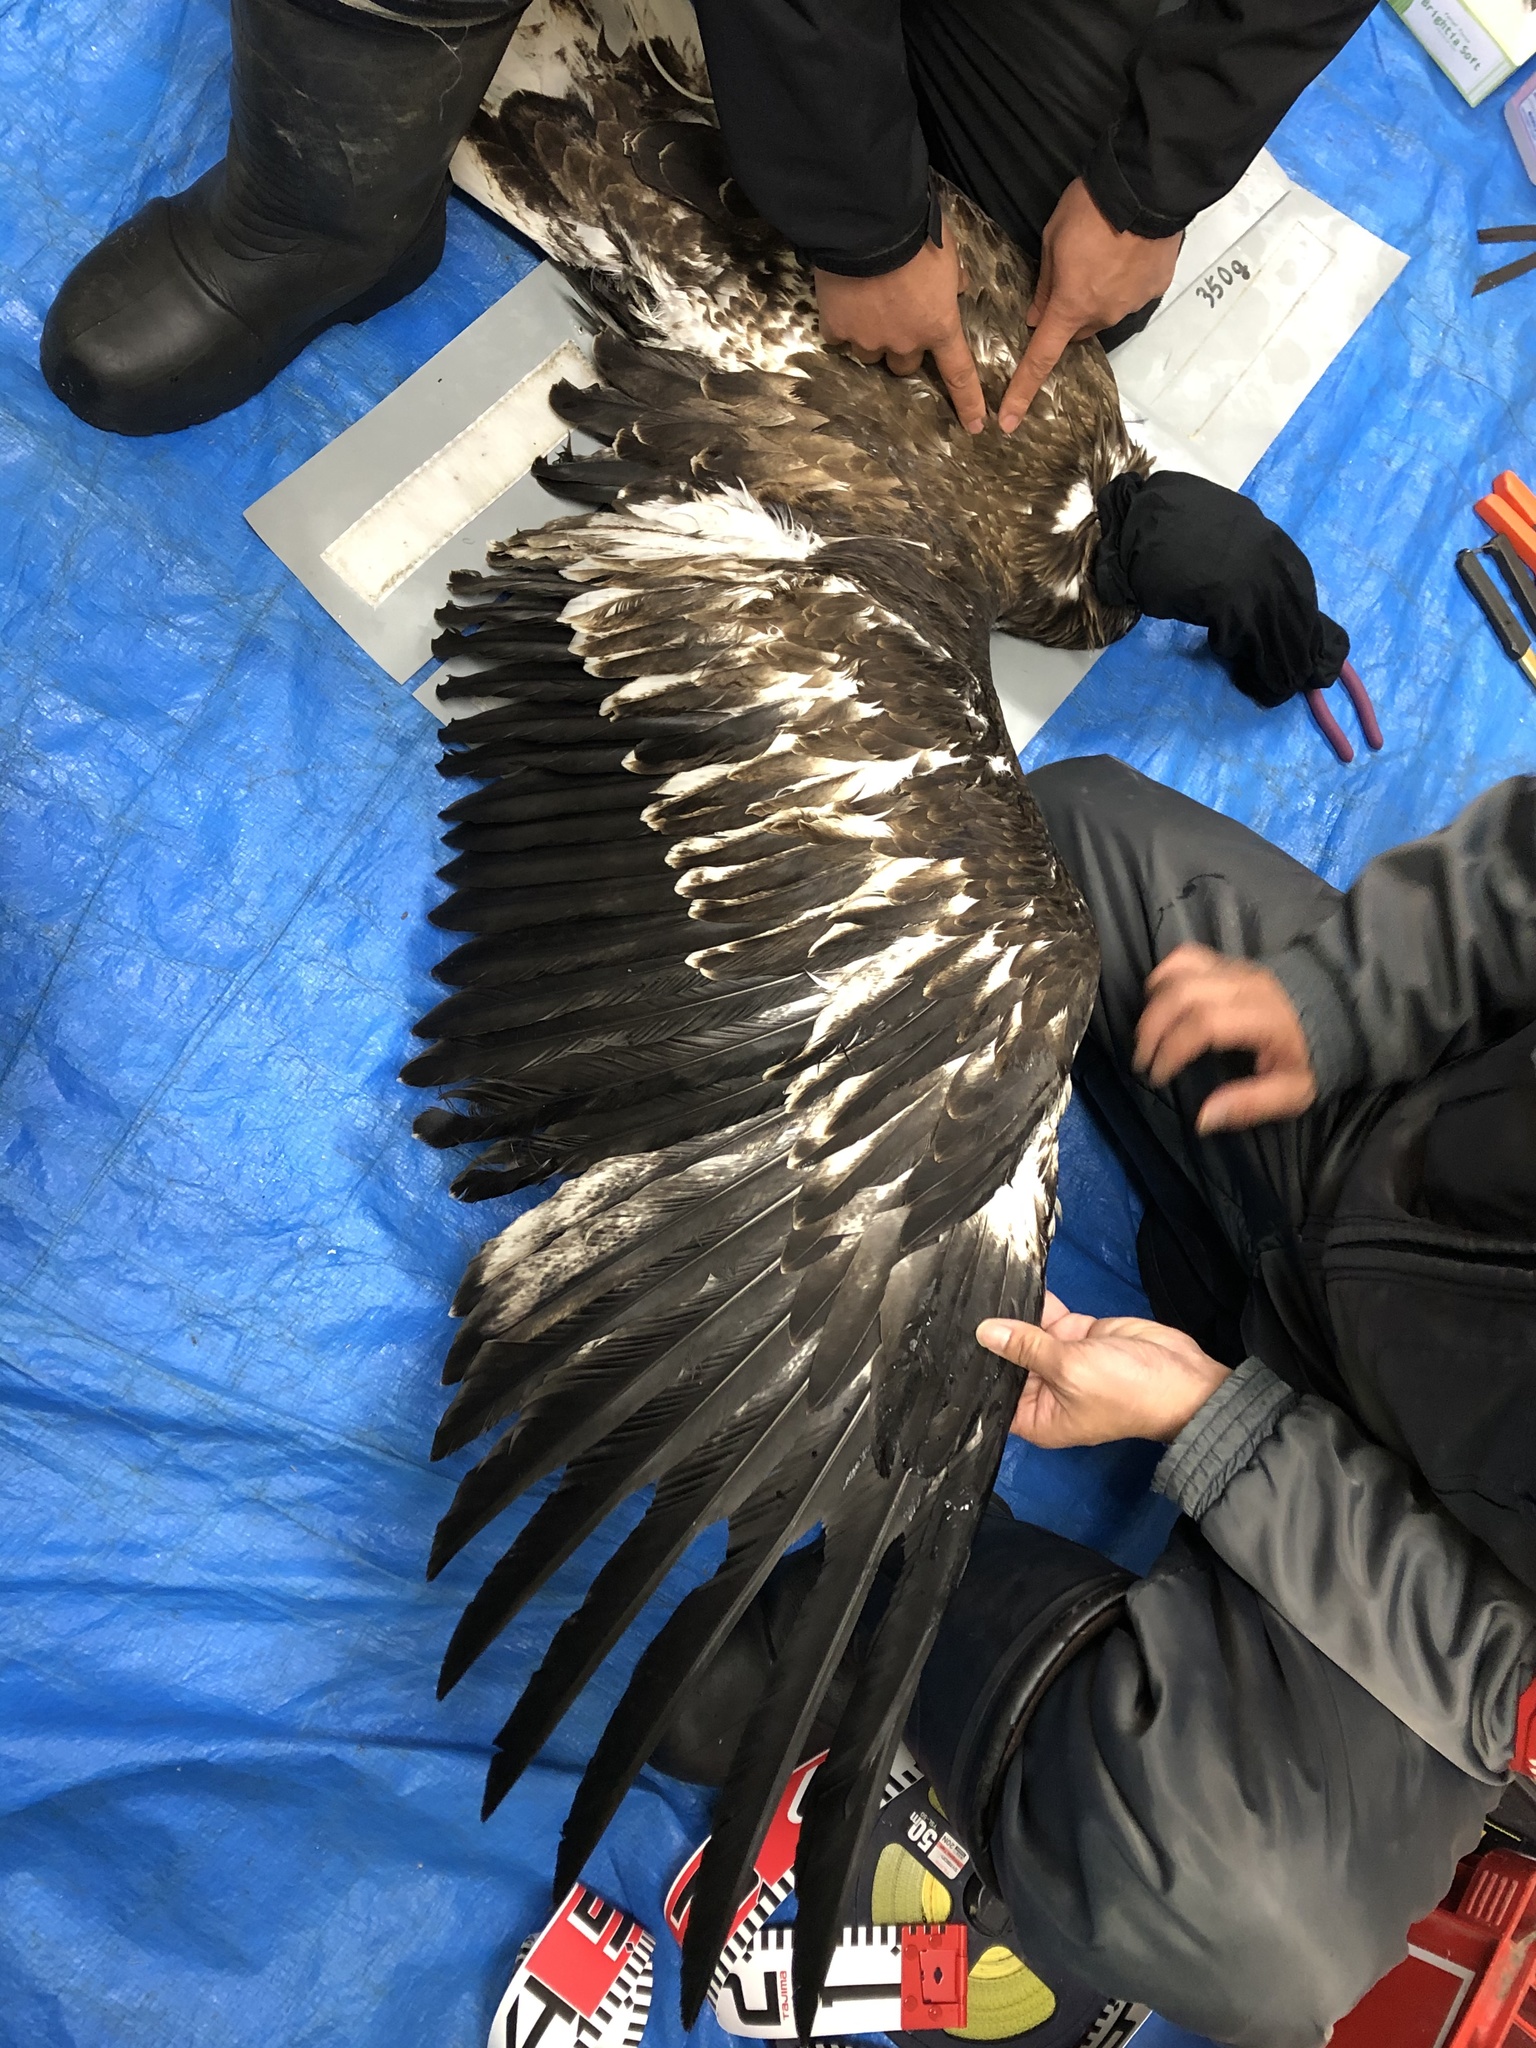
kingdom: Animalia
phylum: Chordata
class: Aves
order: Accipitriformes
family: Accipitridae
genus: Haliaeetus
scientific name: Haliaeetus pelagicus
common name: Steller's sea eagle
